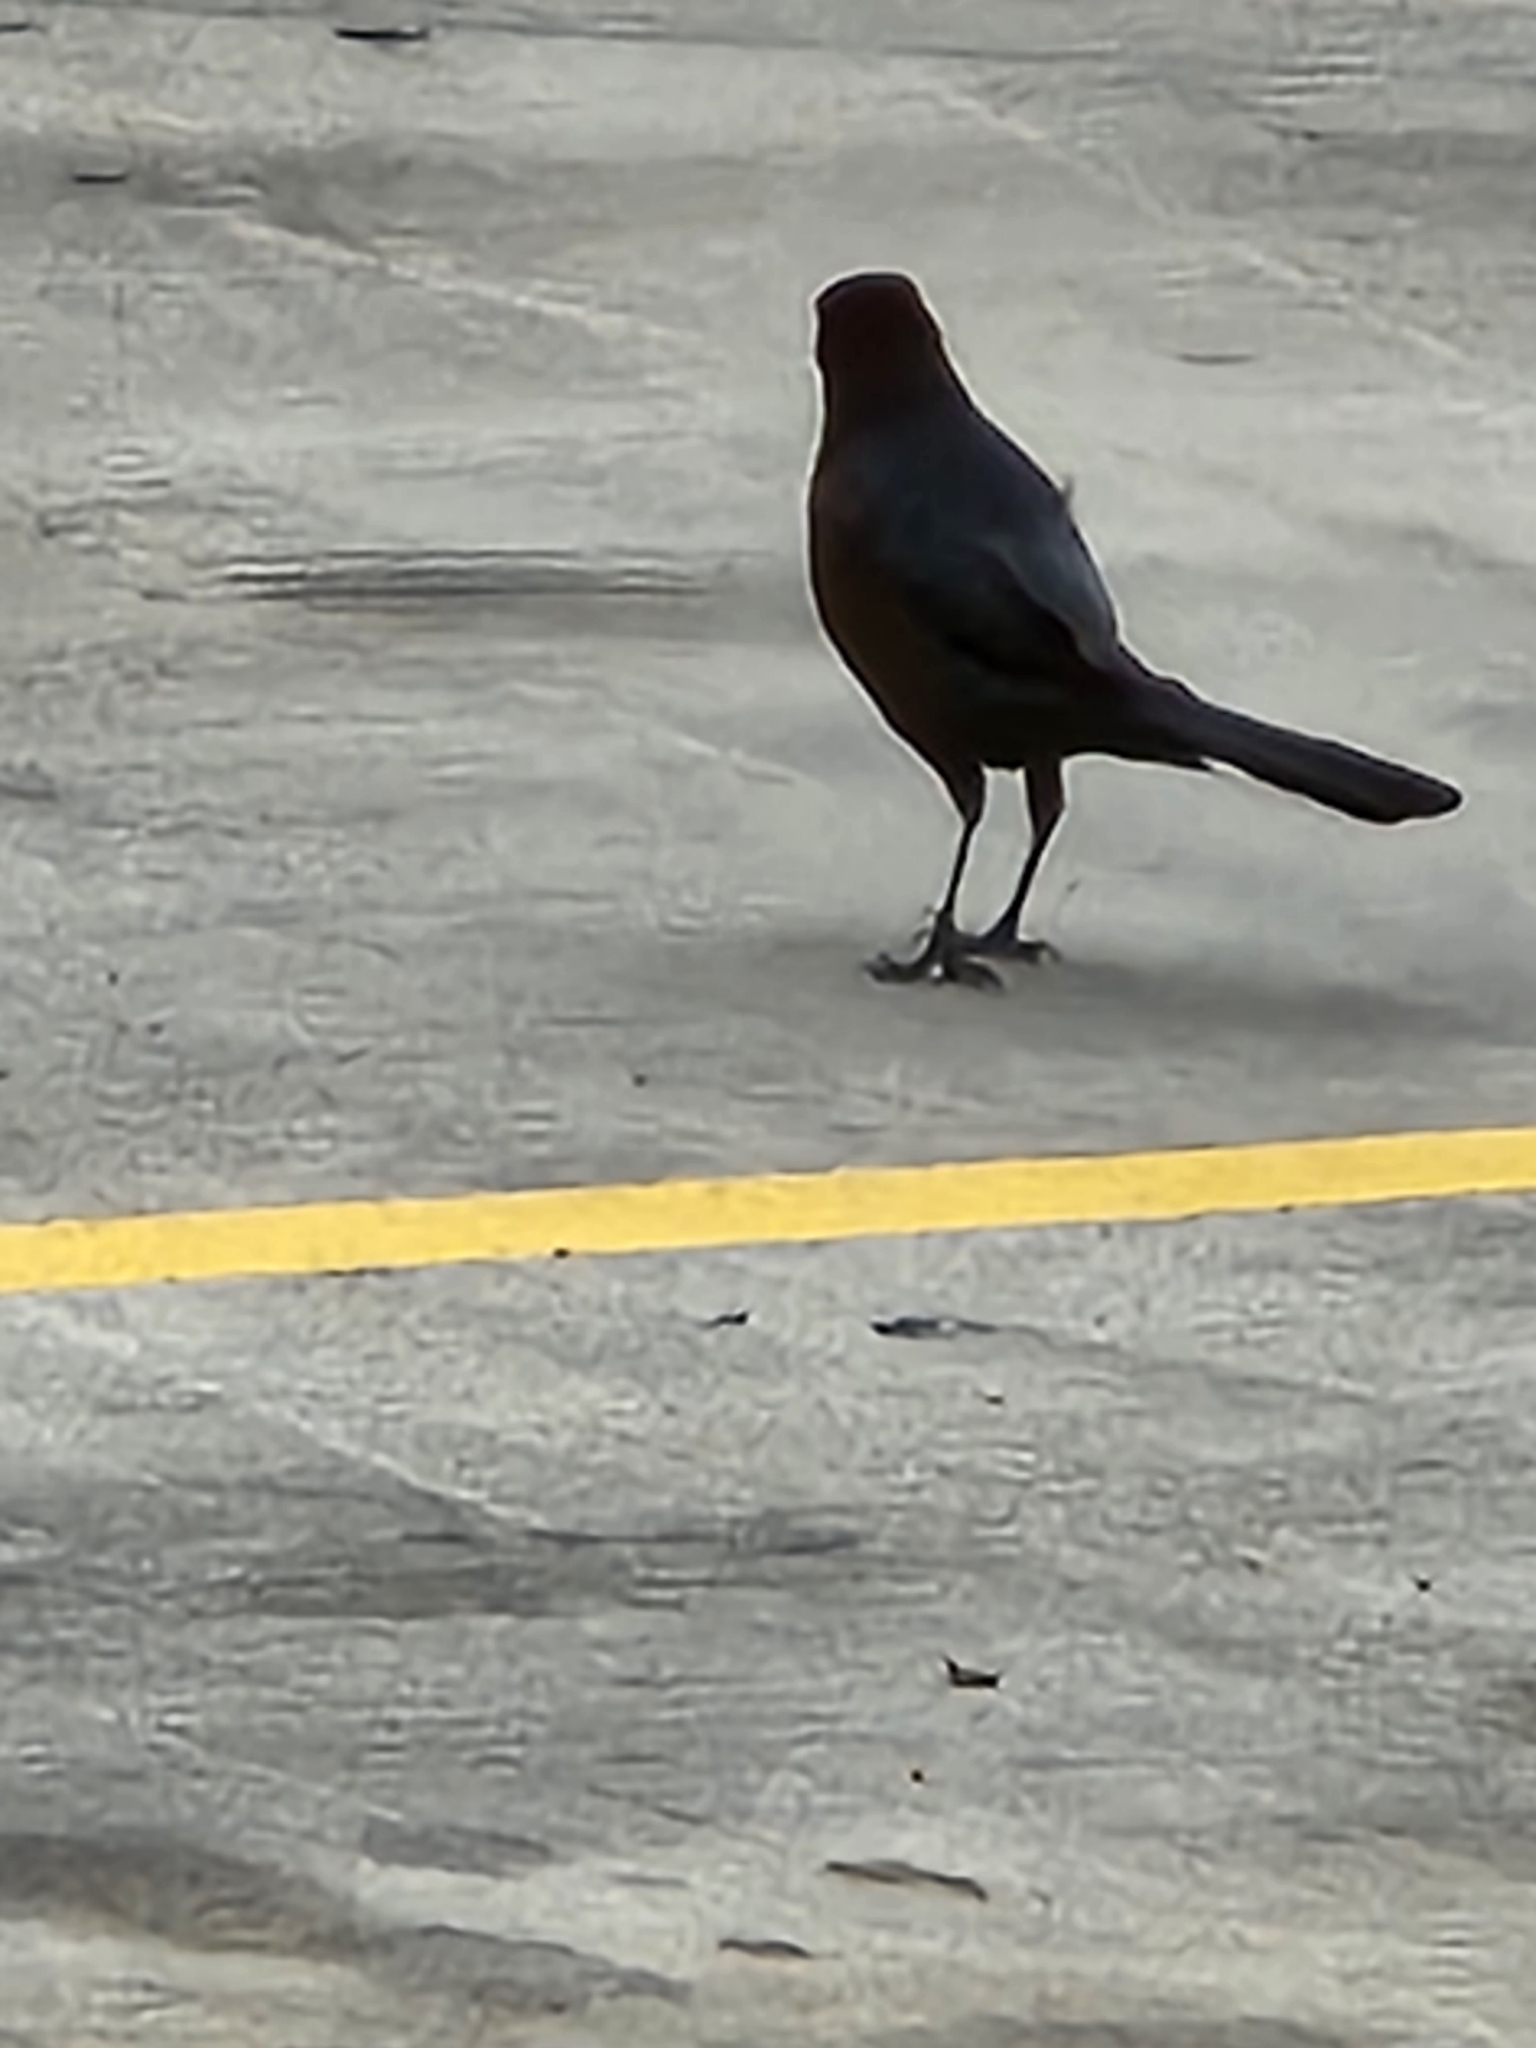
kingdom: Animalia
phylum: Chordata
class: Aves
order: Passeriformes
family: Icteridae
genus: Quiscalus
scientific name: Quiscalus mexicanus
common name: Great-tailed grackle
